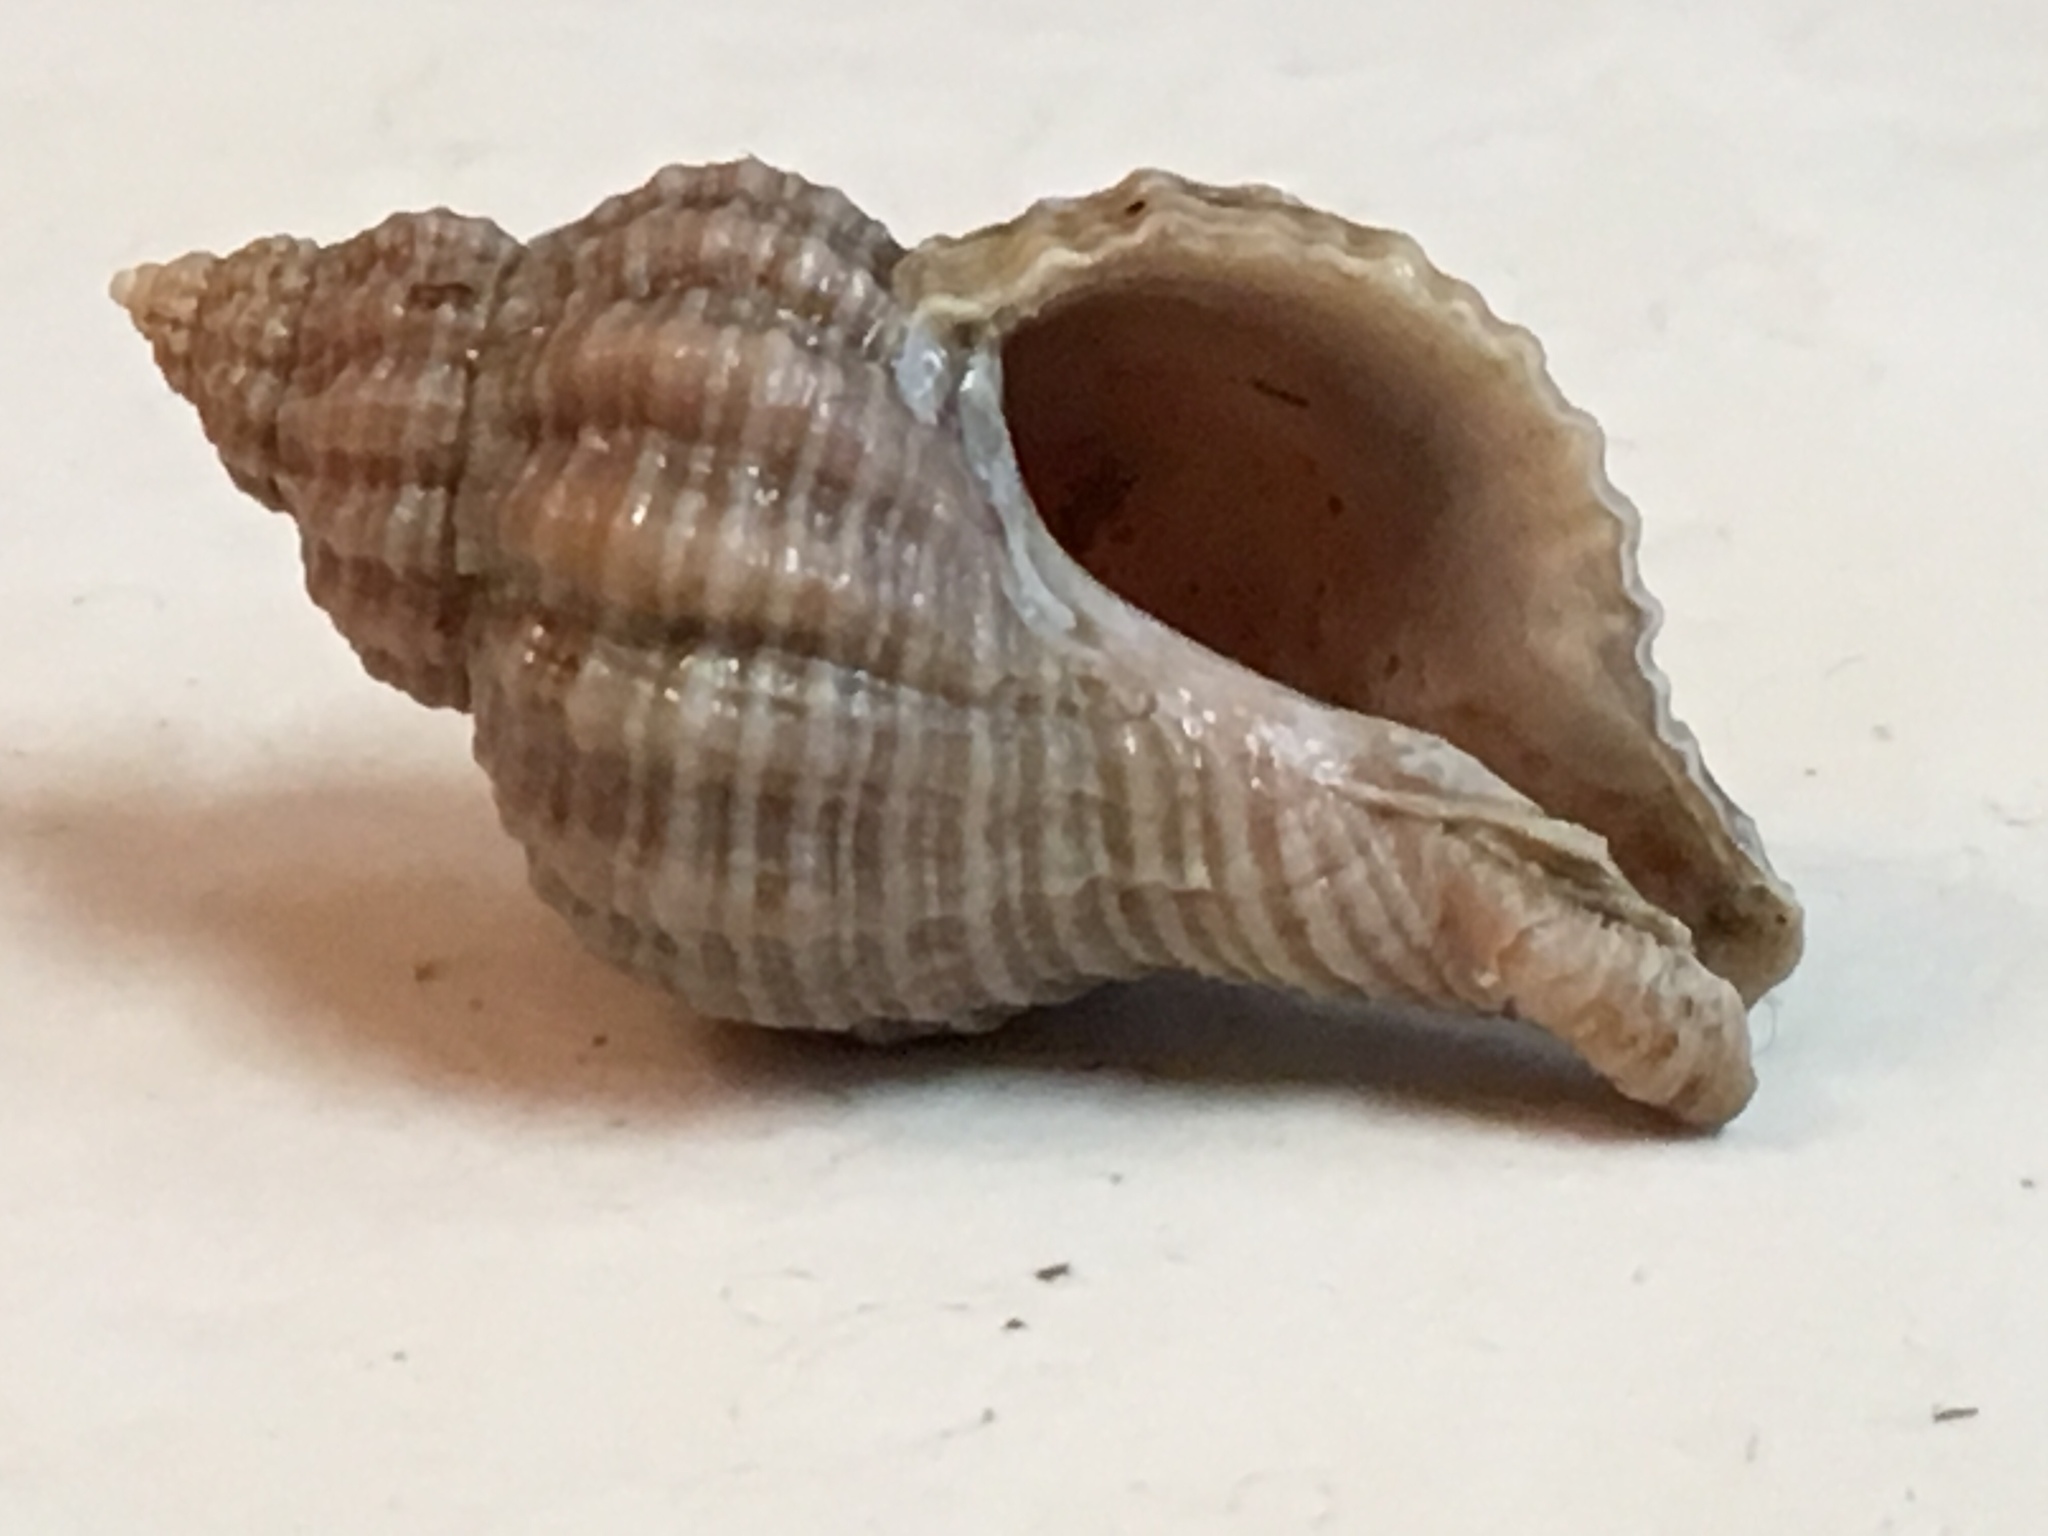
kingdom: Animalia
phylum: Mollusca
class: Gastropoda
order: Neogastropoda
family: Muricidae
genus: Urosalpinx
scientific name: Urosalpinx cinerea
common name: American sting winkle
